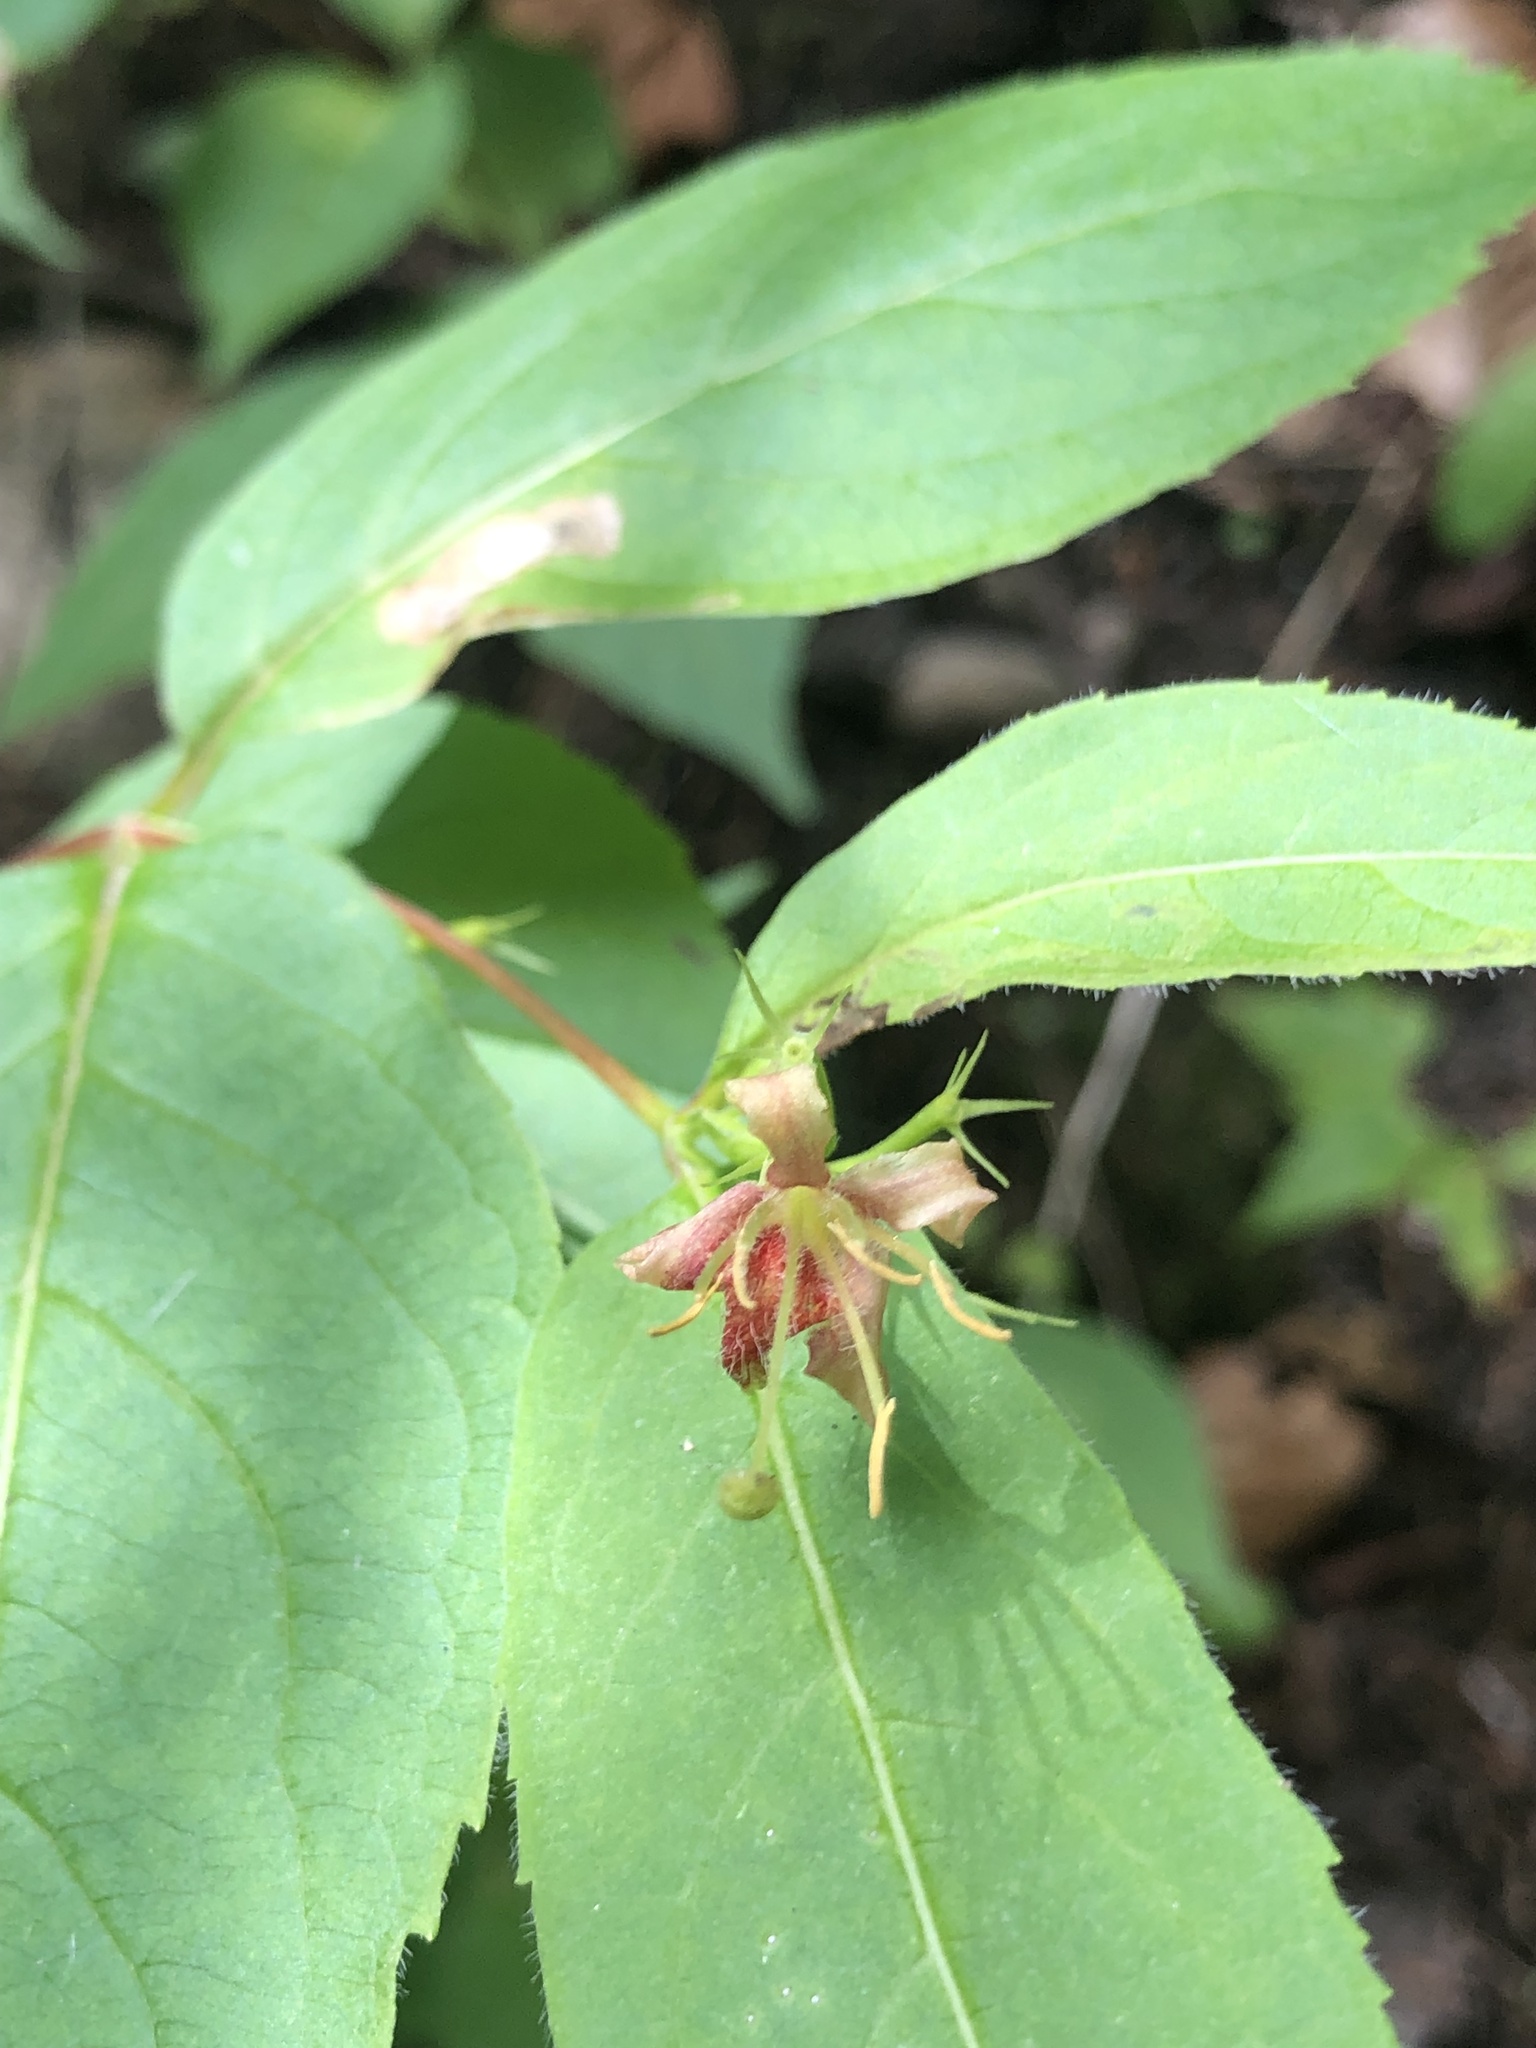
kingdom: Plantae
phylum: Tracheophyta
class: Magnoliopsida
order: Dipsacales
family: Caprifoliaceae
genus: Diervilla
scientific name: Diervilla lonicera
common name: Bush-honeysuckle
